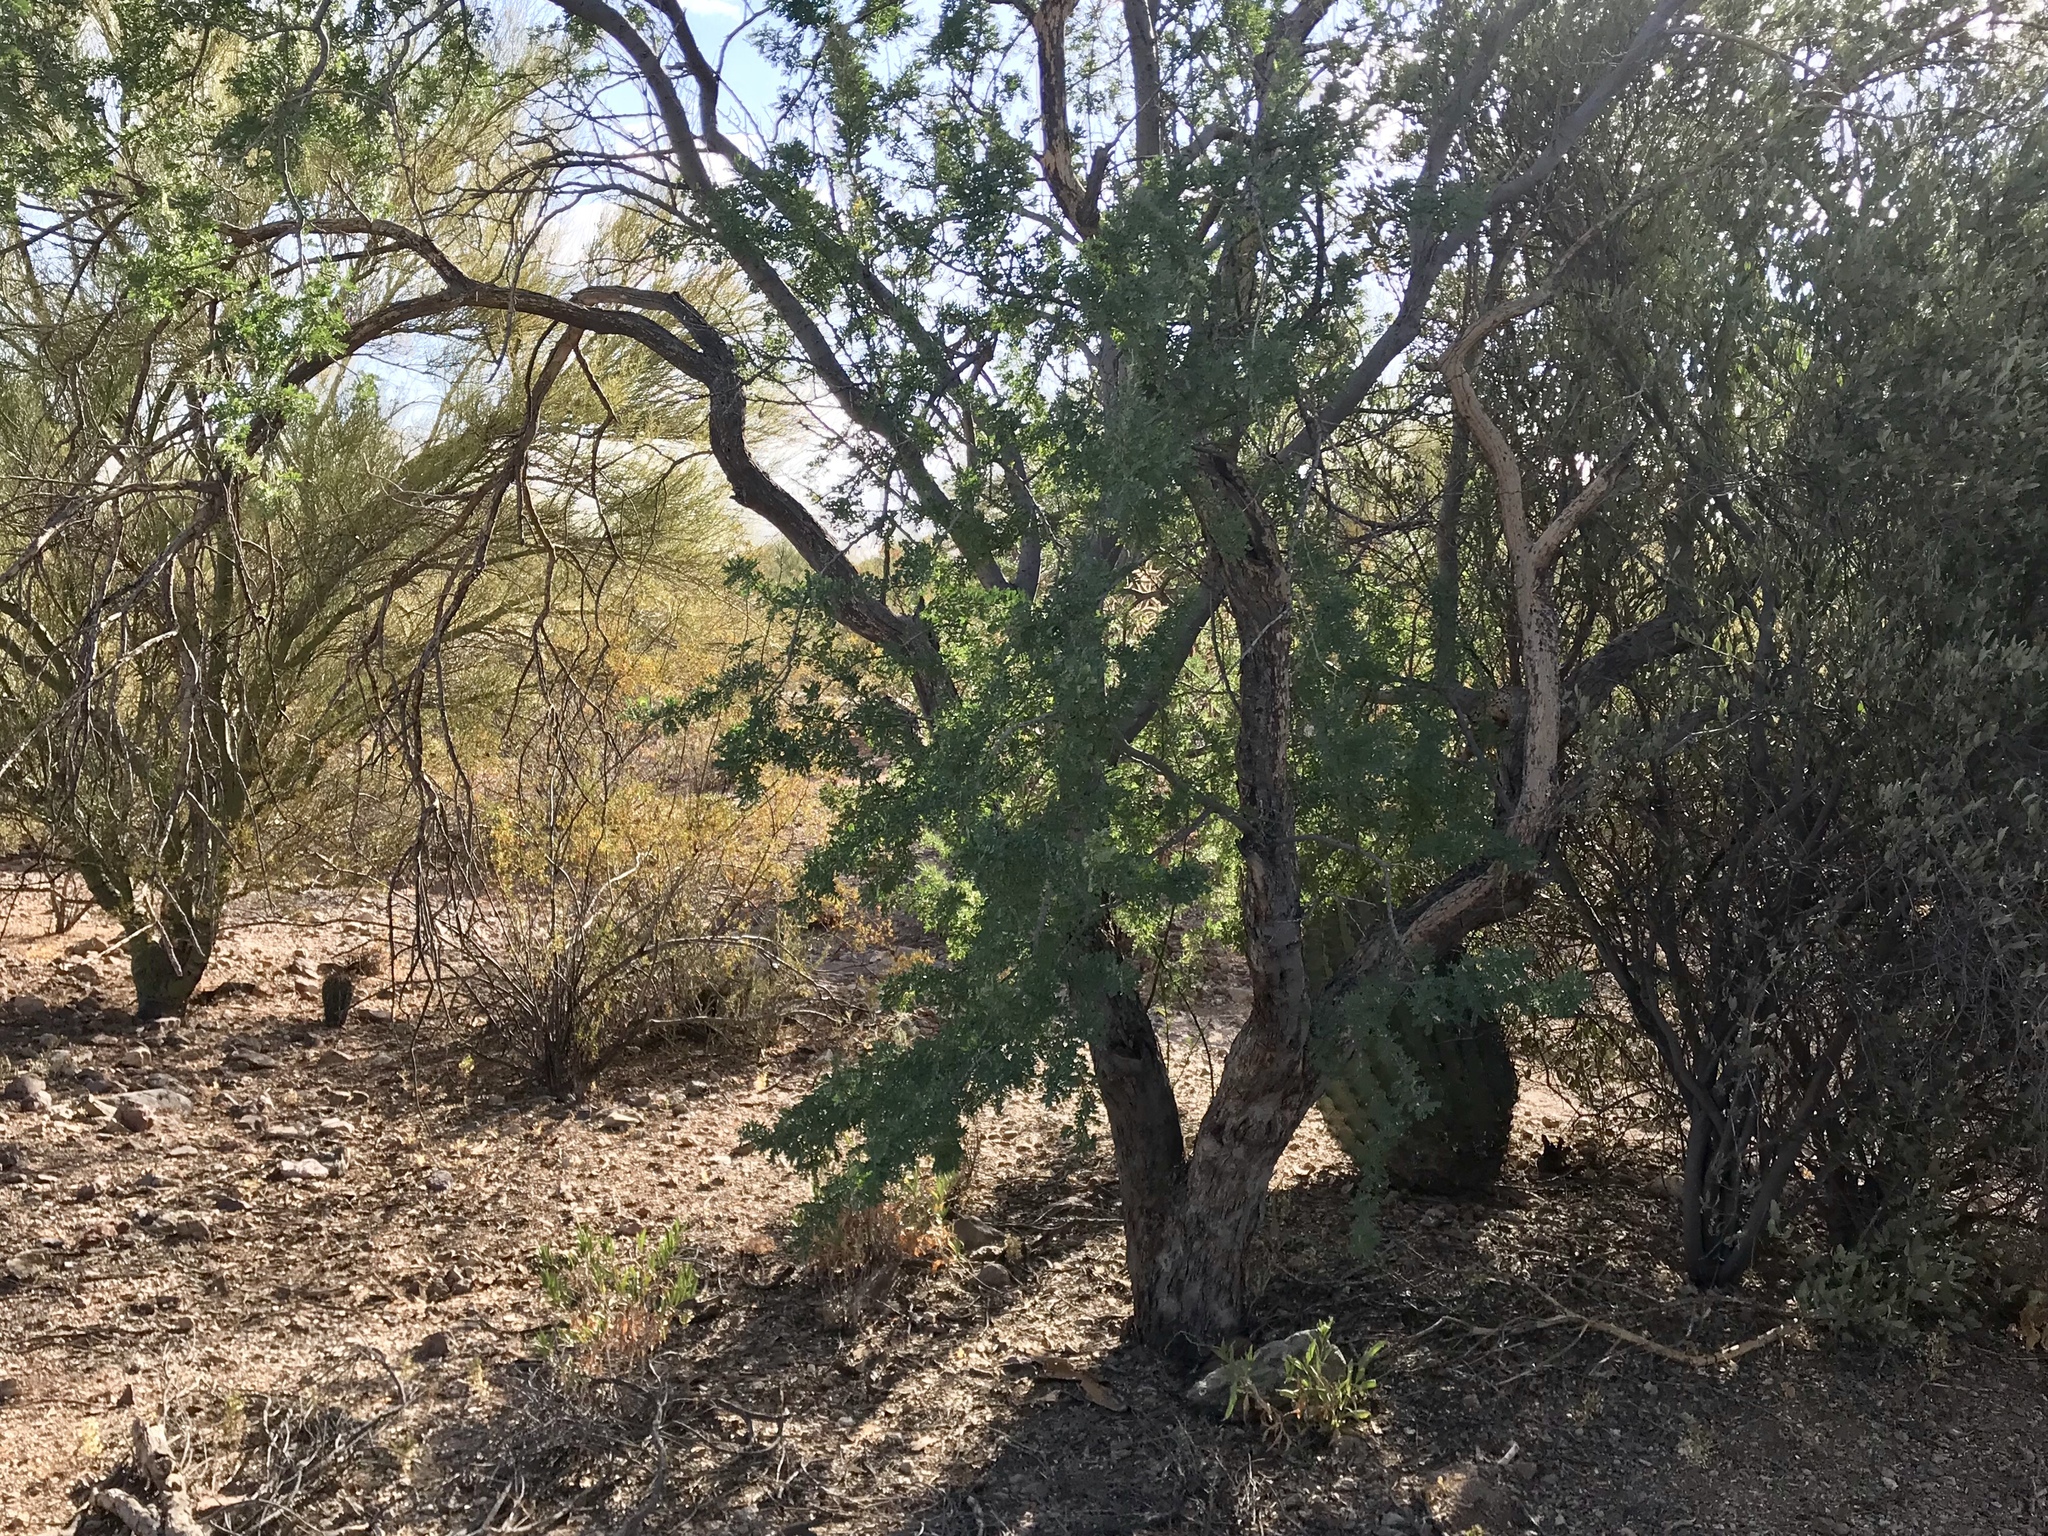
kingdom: Plantae
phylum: Tracheophyta
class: Magnoliopsida
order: Fabales
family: Fabaceae
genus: Olneya
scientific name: Olneya tesota
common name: Desert ironwood
